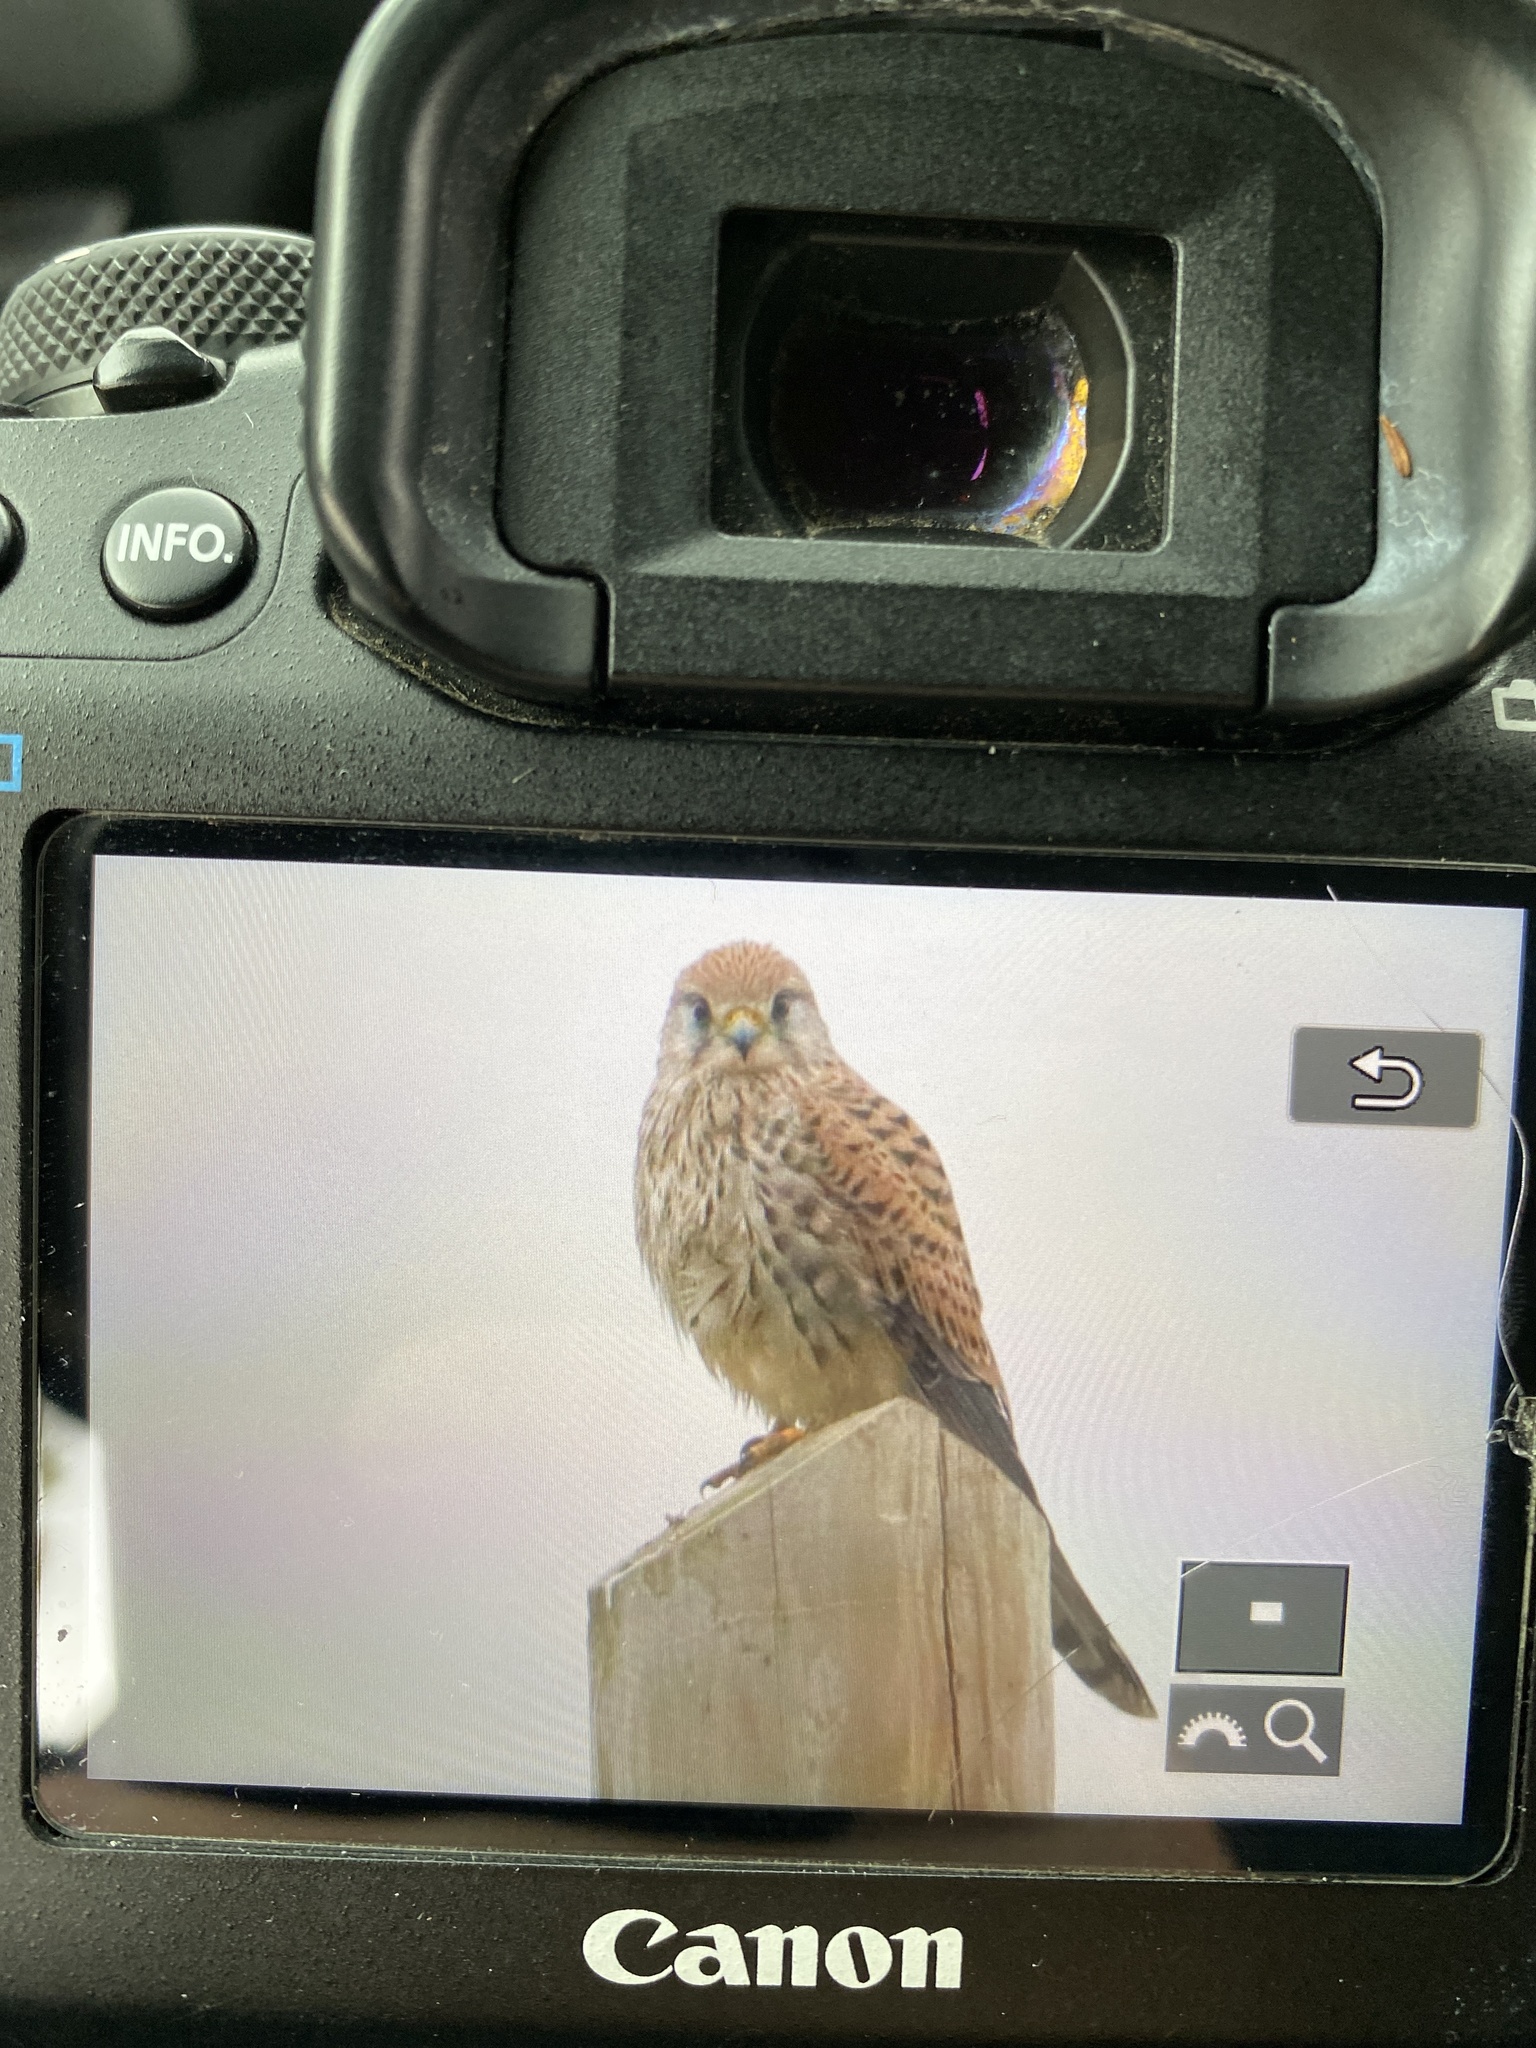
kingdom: Animalia
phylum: Chordata
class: Aves
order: Falconiformes
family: Falconidae
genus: Falco
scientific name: Falco tinnunculus
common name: Common kestrel
